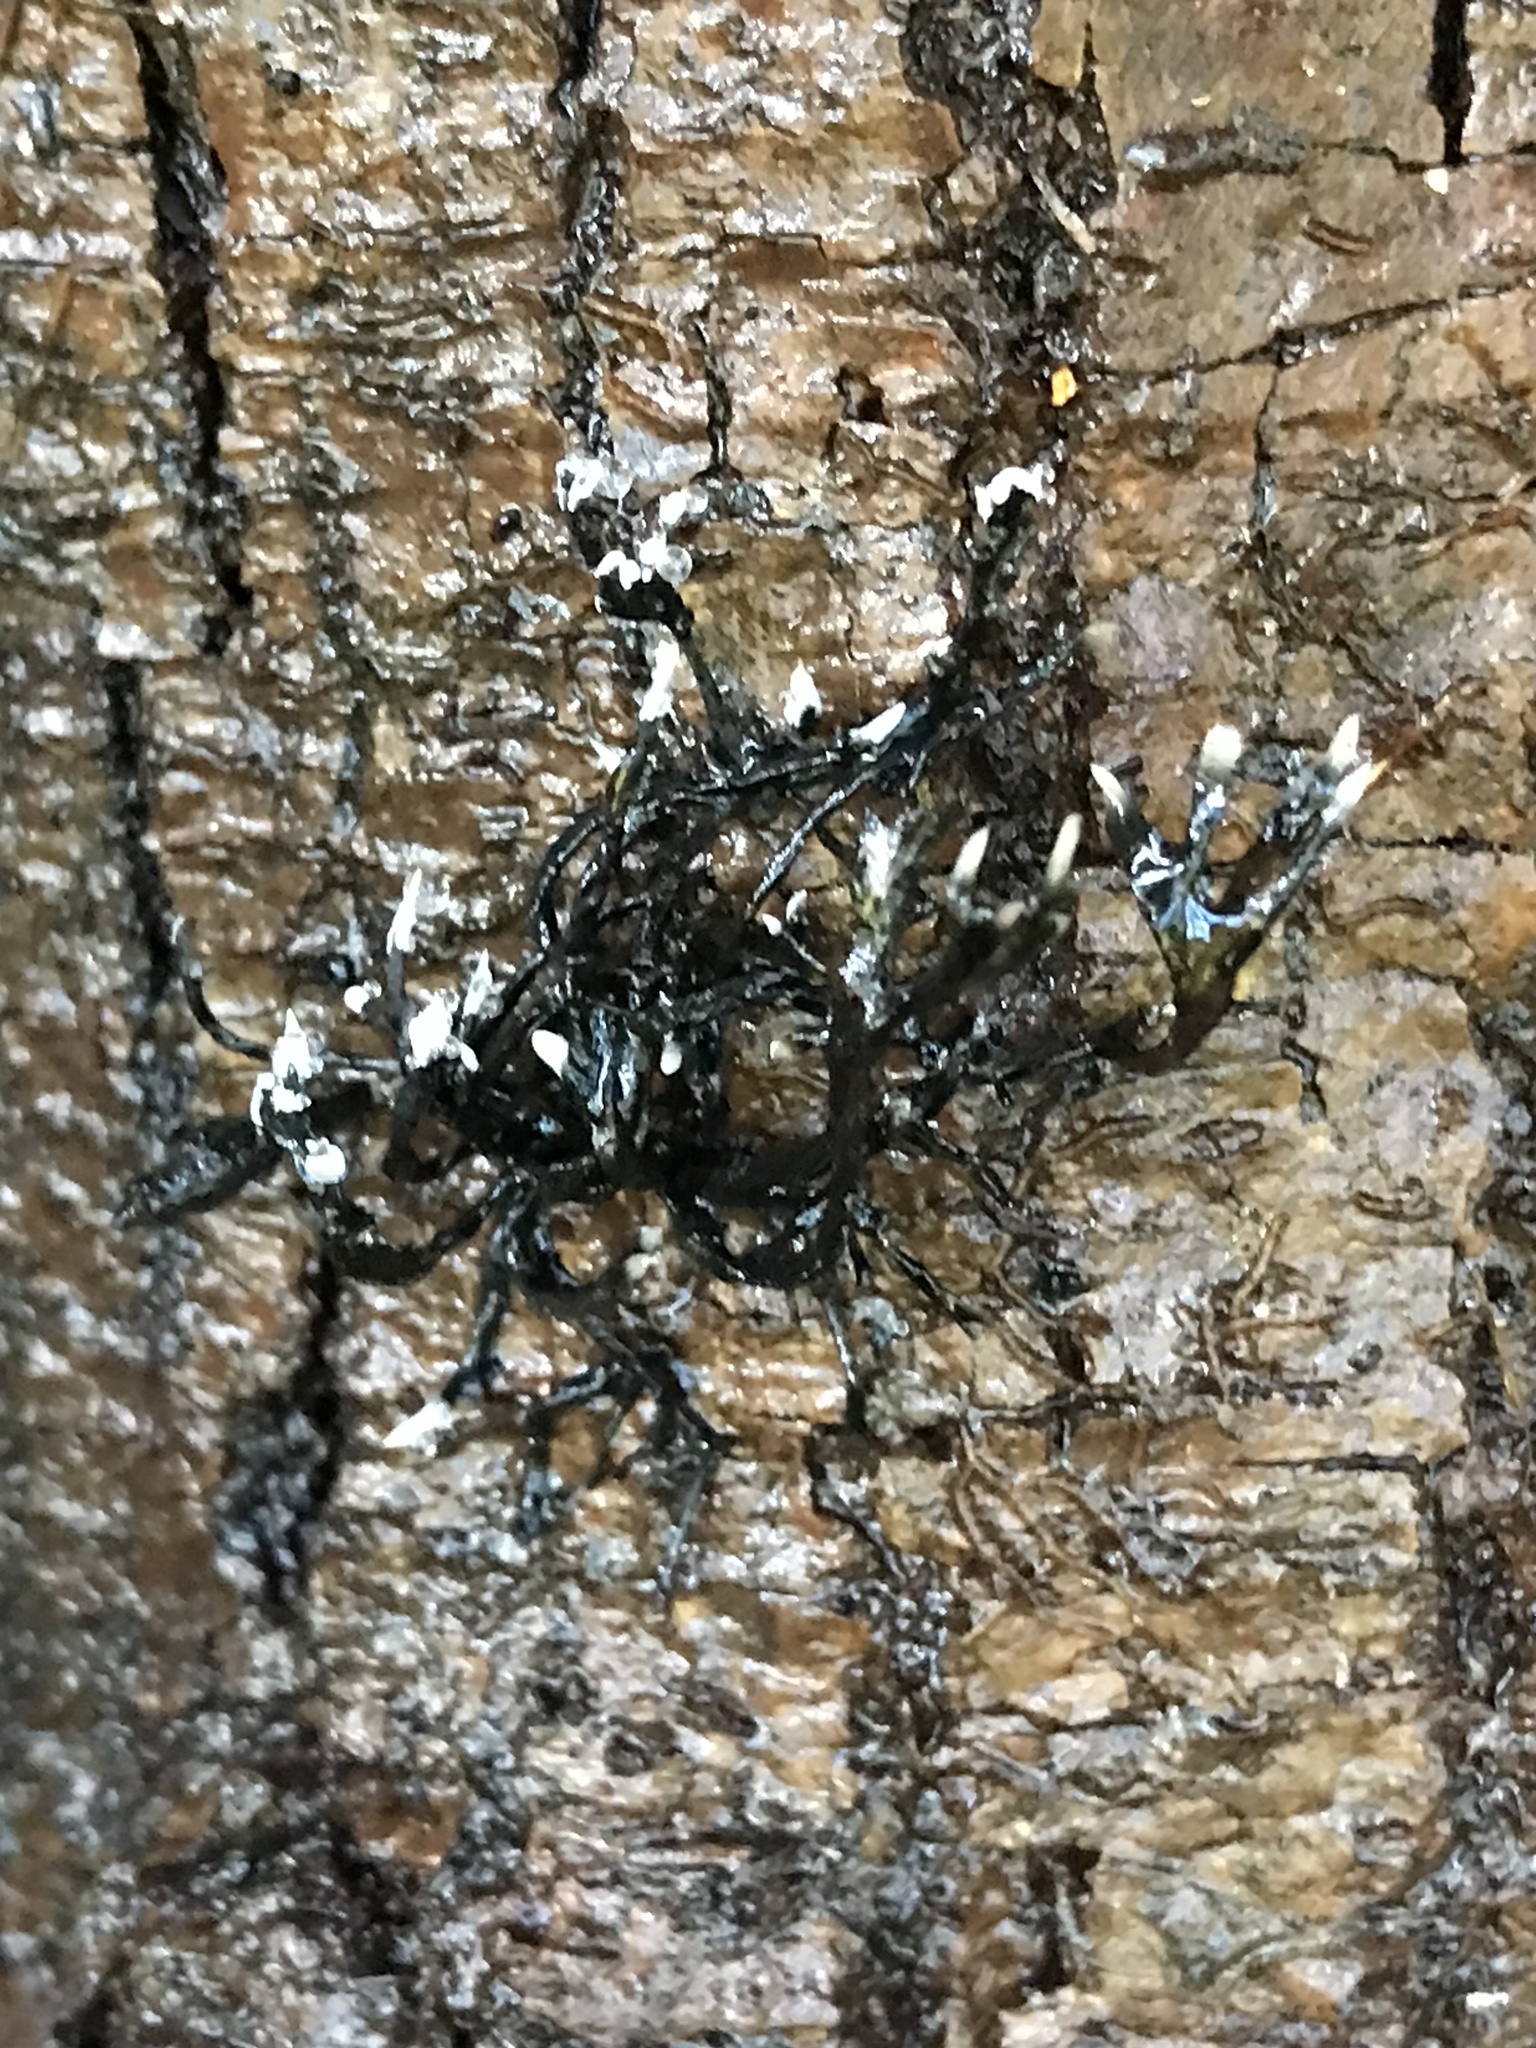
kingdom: Fungi
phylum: Ascomycota
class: Sordariomycetes
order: Xylariales
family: Xylariaceae
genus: Xylaria
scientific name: Xylaria hypoxylon
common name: Candle-snuff fungus
